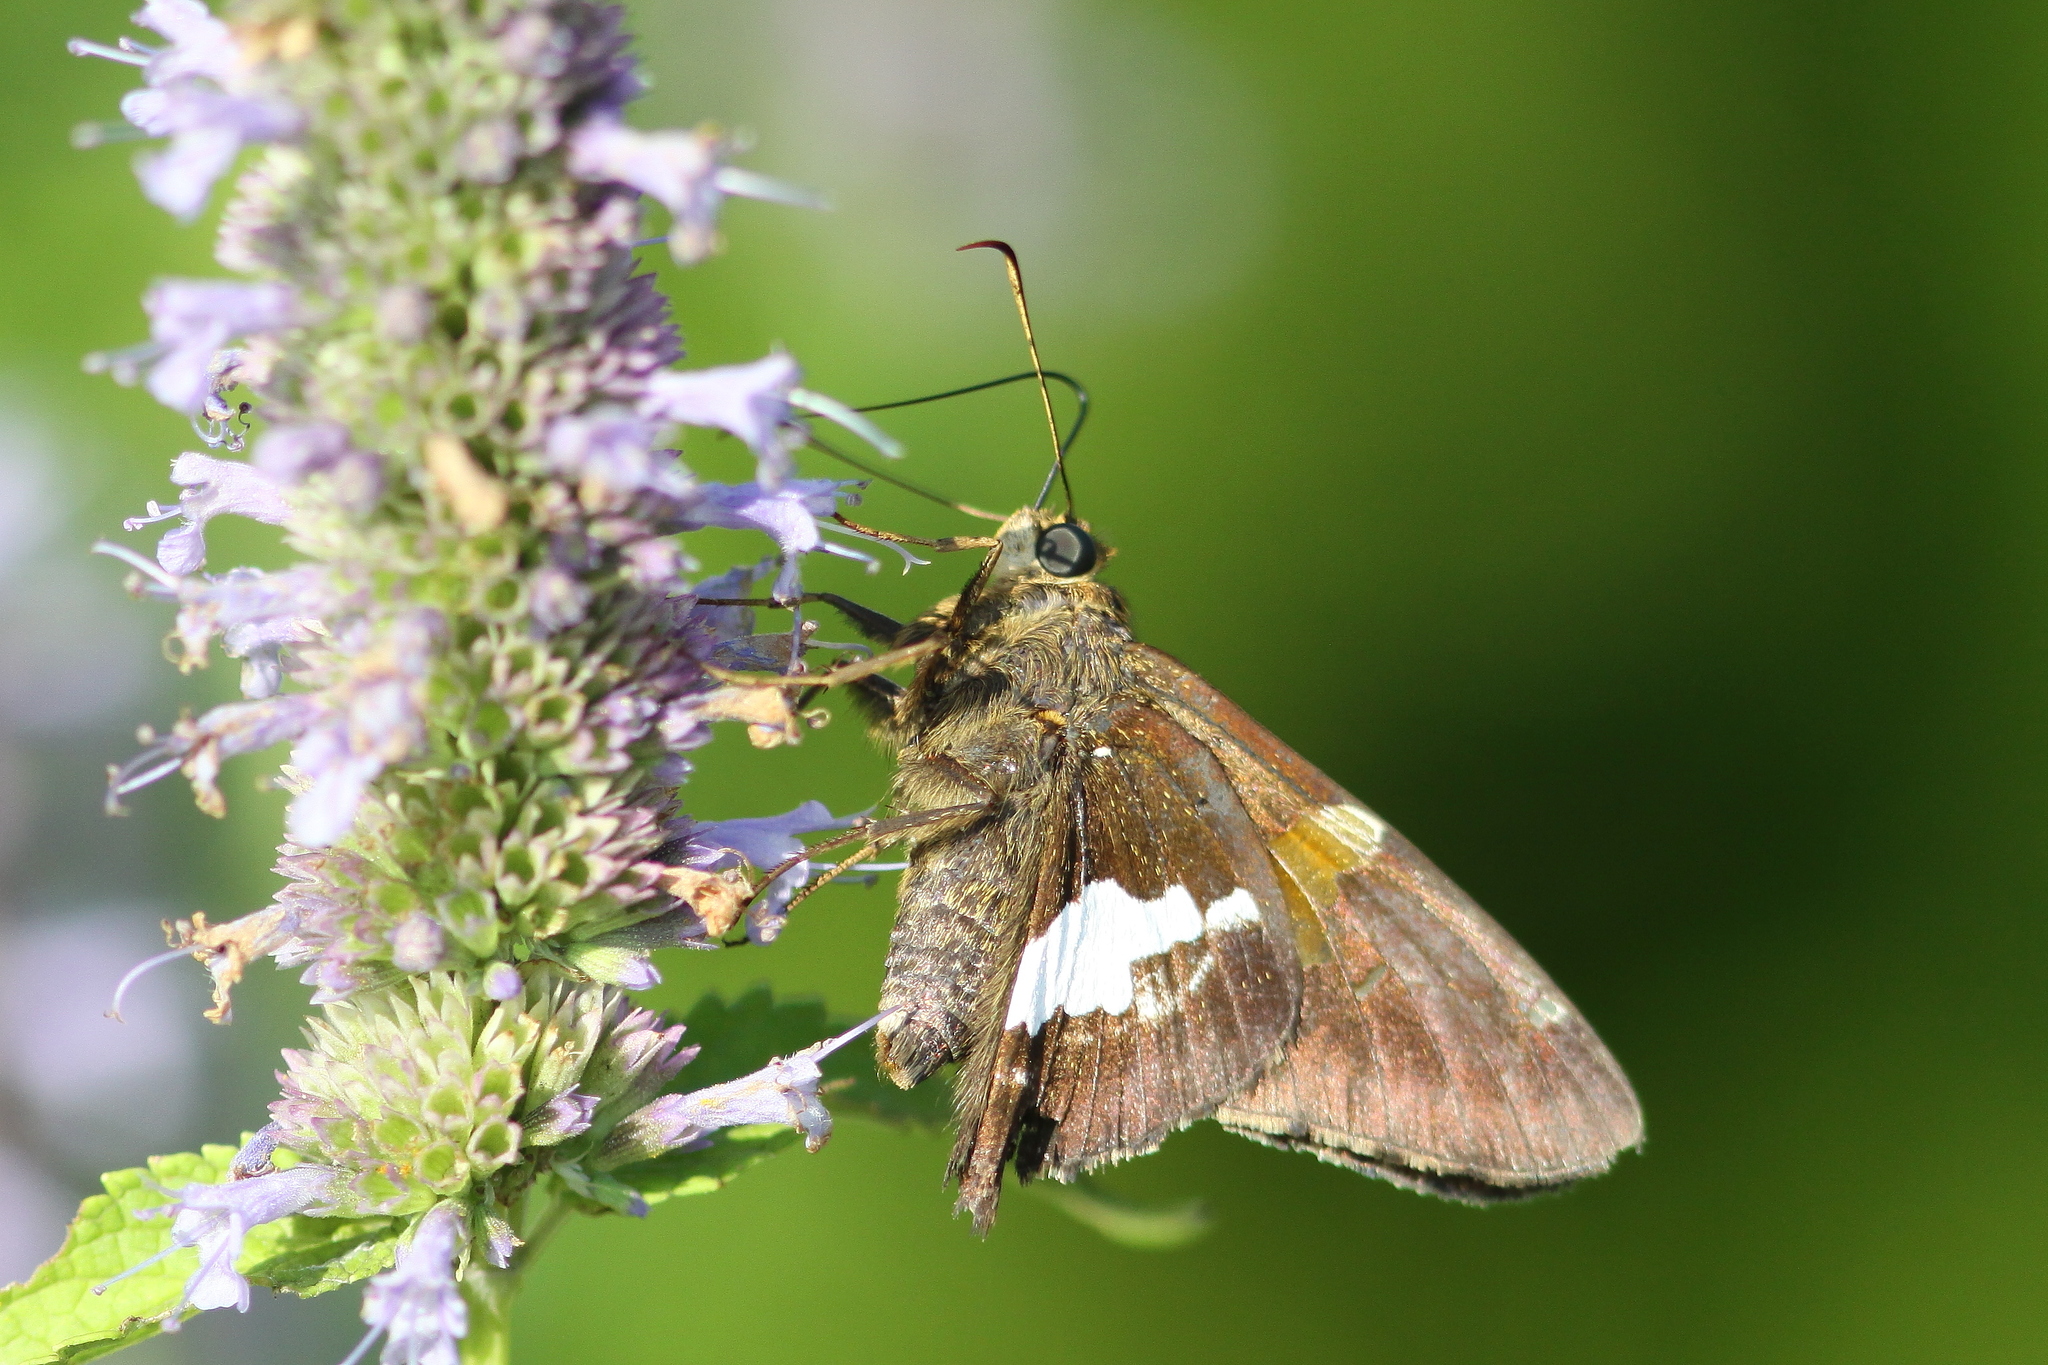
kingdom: Animalia
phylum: Arthropoda
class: Insecta
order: Lepidoptera
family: Hesperiidae
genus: Epargyreus
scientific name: Epargyreus clarus
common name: Silver-spotted skipper
